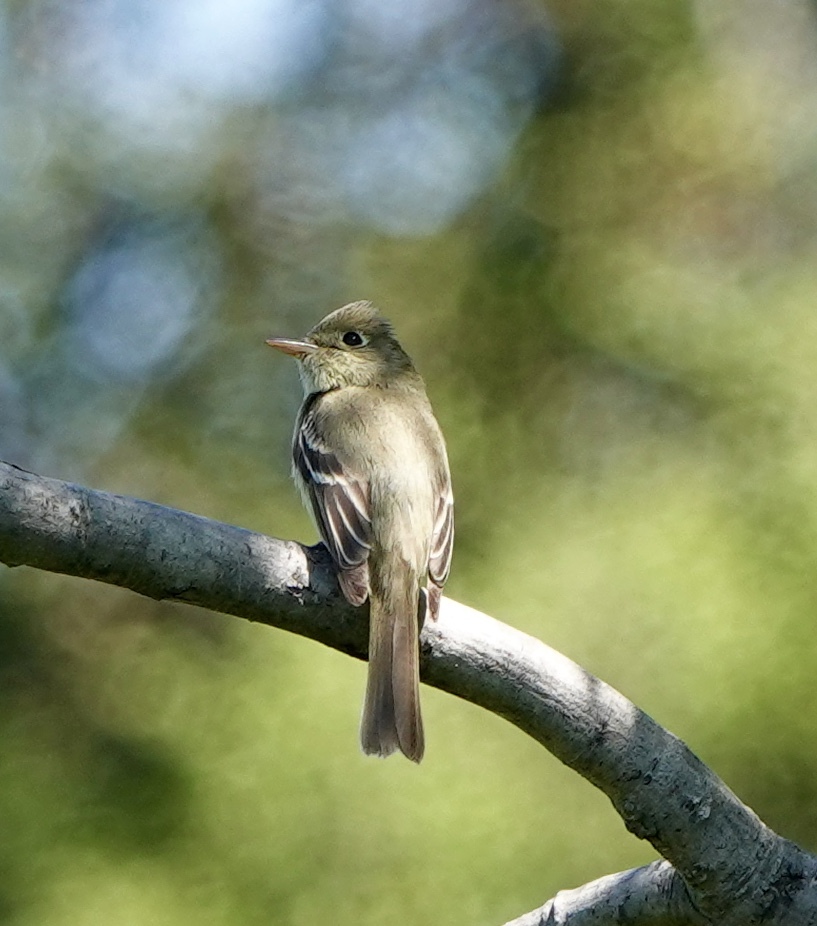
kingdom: Animalia
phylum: Chordata
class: Aves
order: Passeriformes
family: Tyrannidae
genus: Empidonax
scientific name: Empidonax difficilis
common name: Pacific-slope flycatcher
